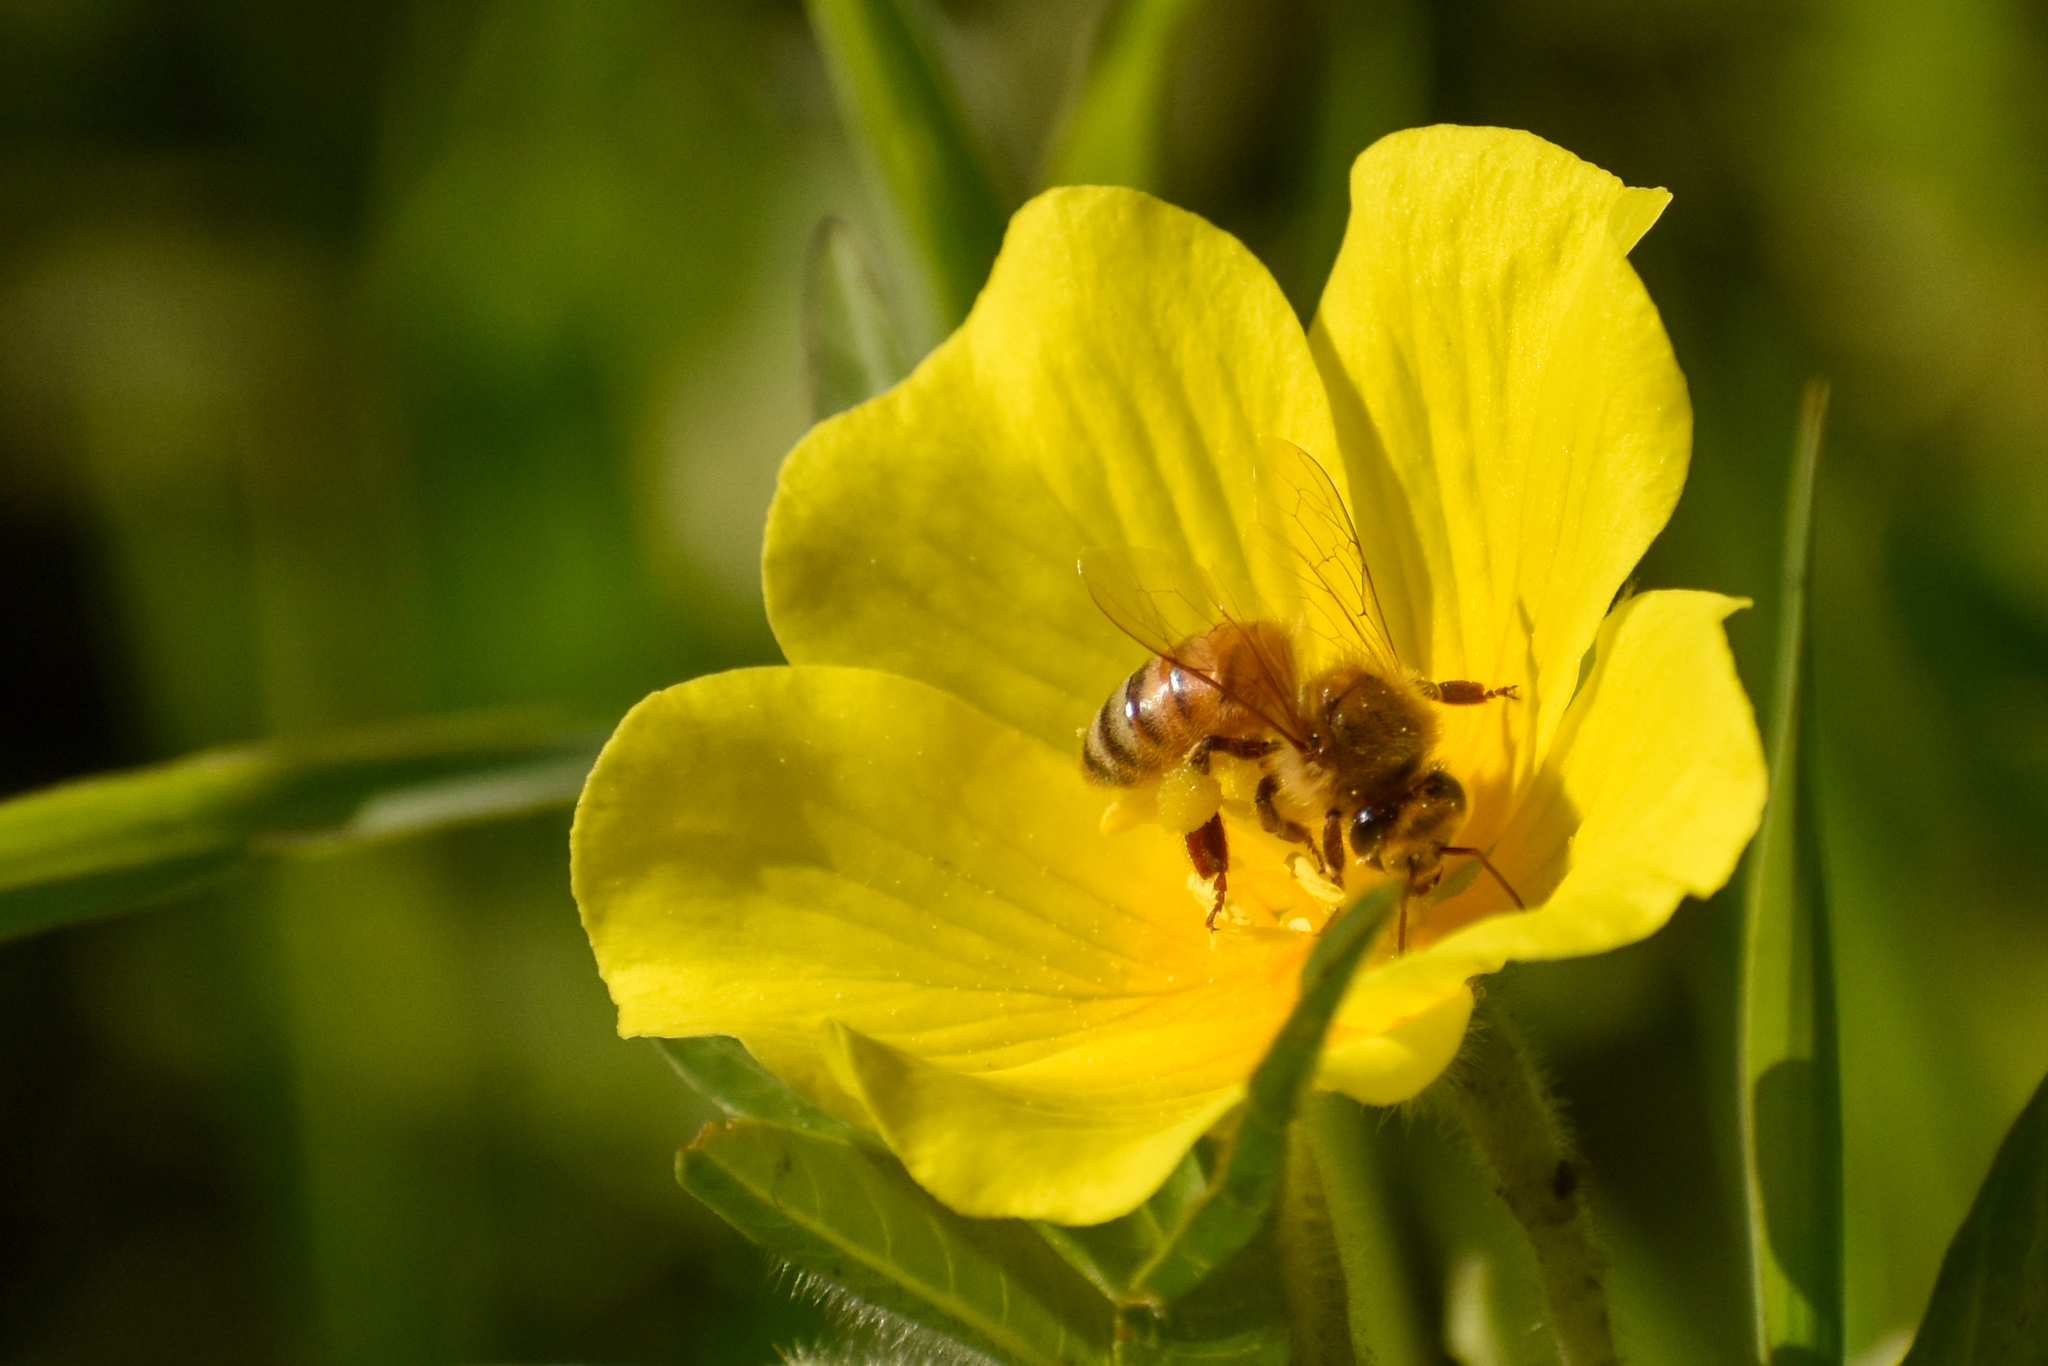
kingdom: Animalia
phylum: Arthropoda
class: Insecta
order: Hymenoptera
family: Apidae
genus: Apis
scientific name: Apis mellifera
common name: Honey bee
